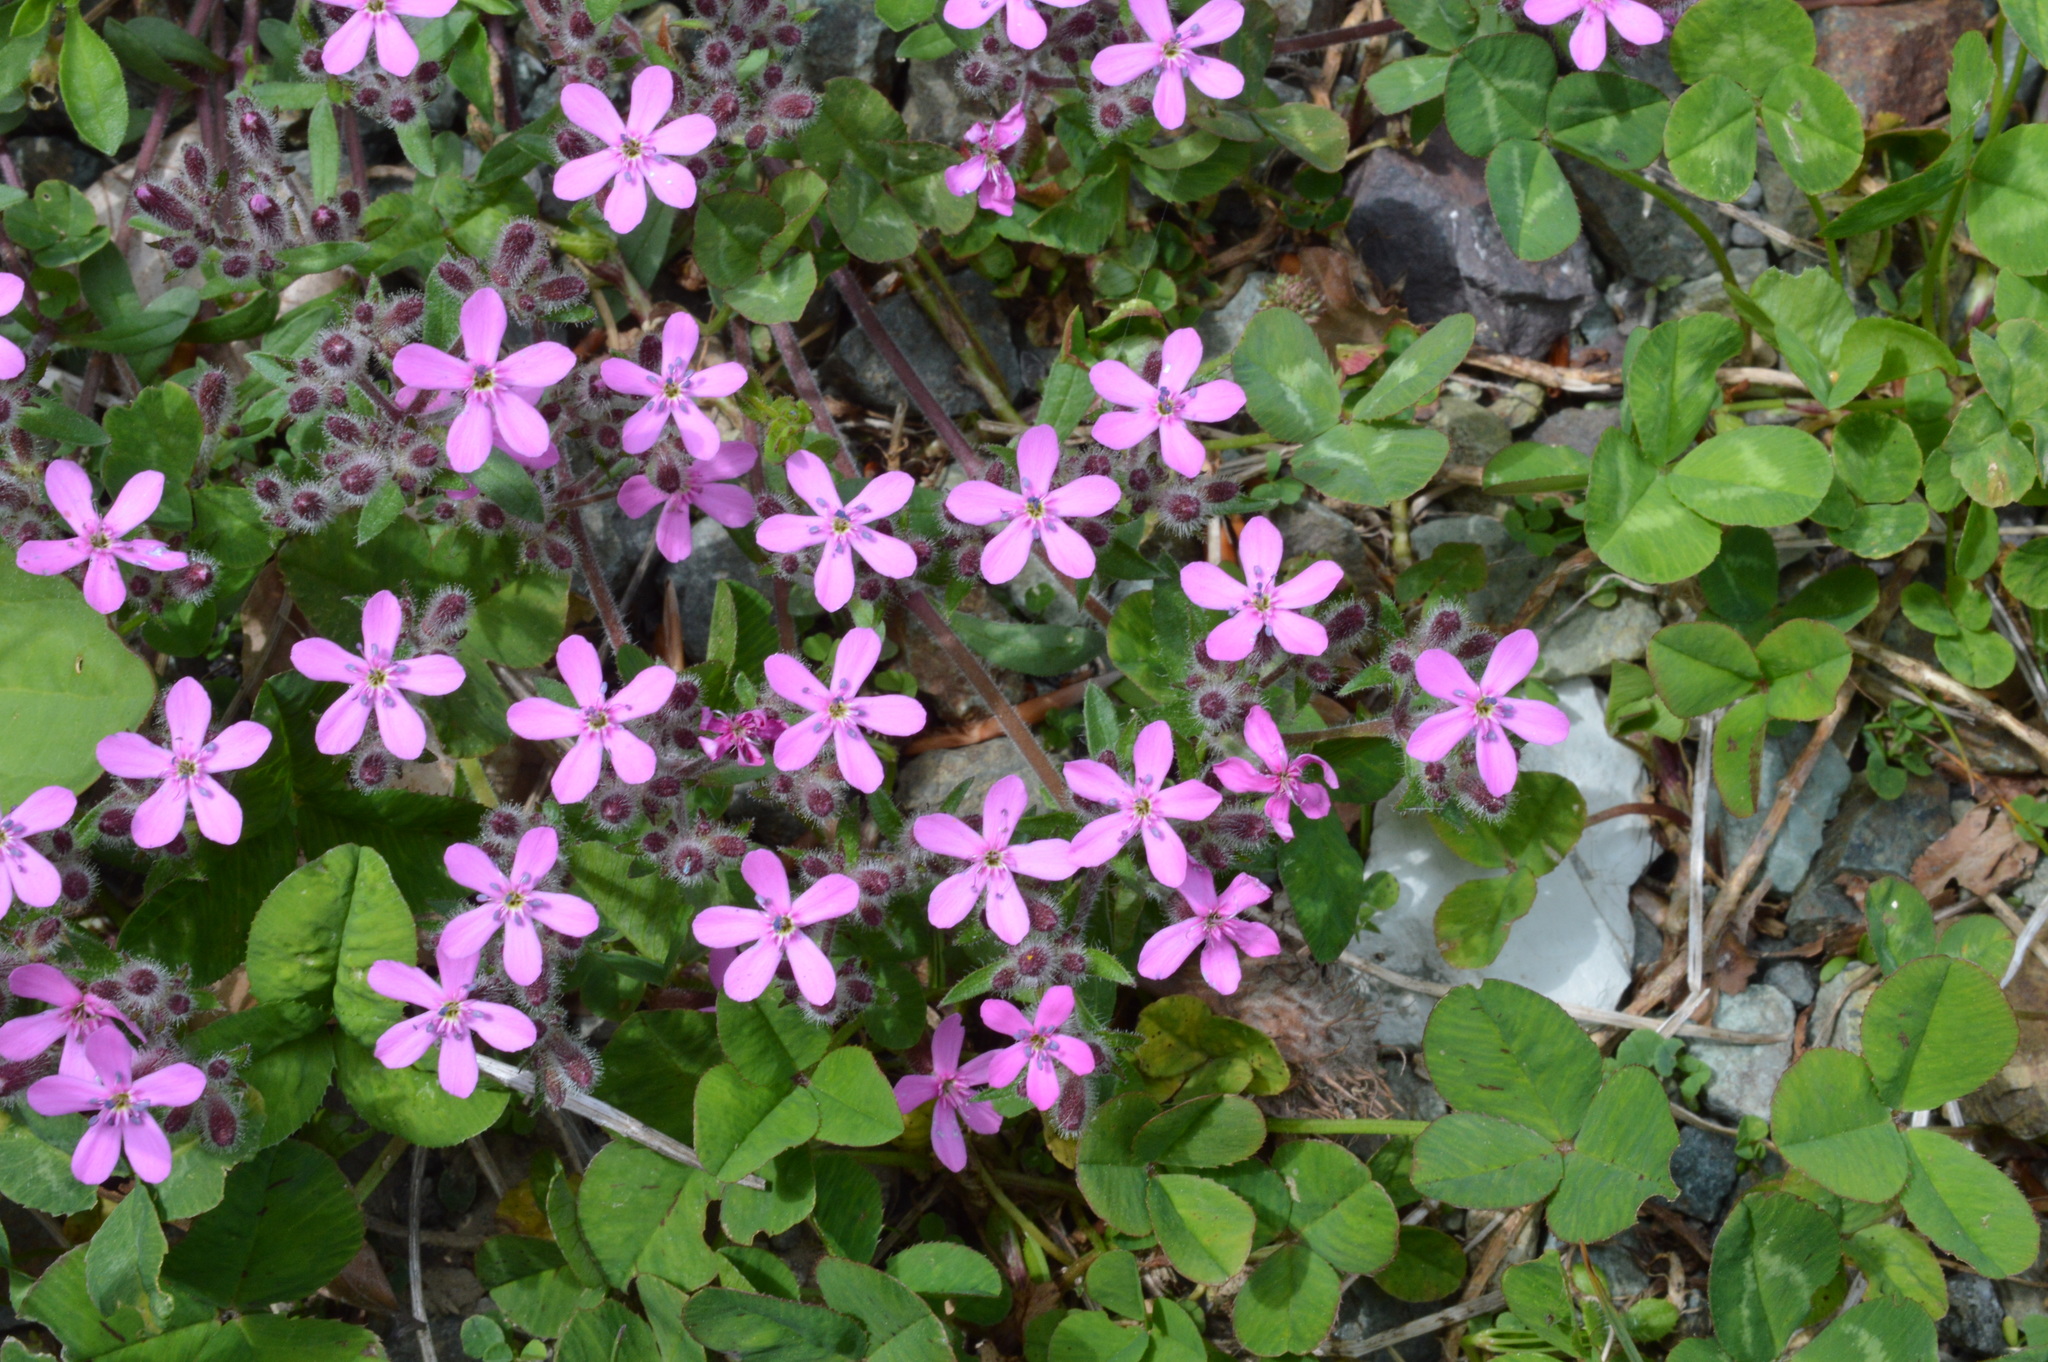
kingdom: Plantae
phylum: Tracheophyta
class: Magnoliopsida
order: Caryophyllales
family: Caryophyllaceae
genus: Saponaria
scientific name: Saponaria ocymoides
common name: Rock soapwort
